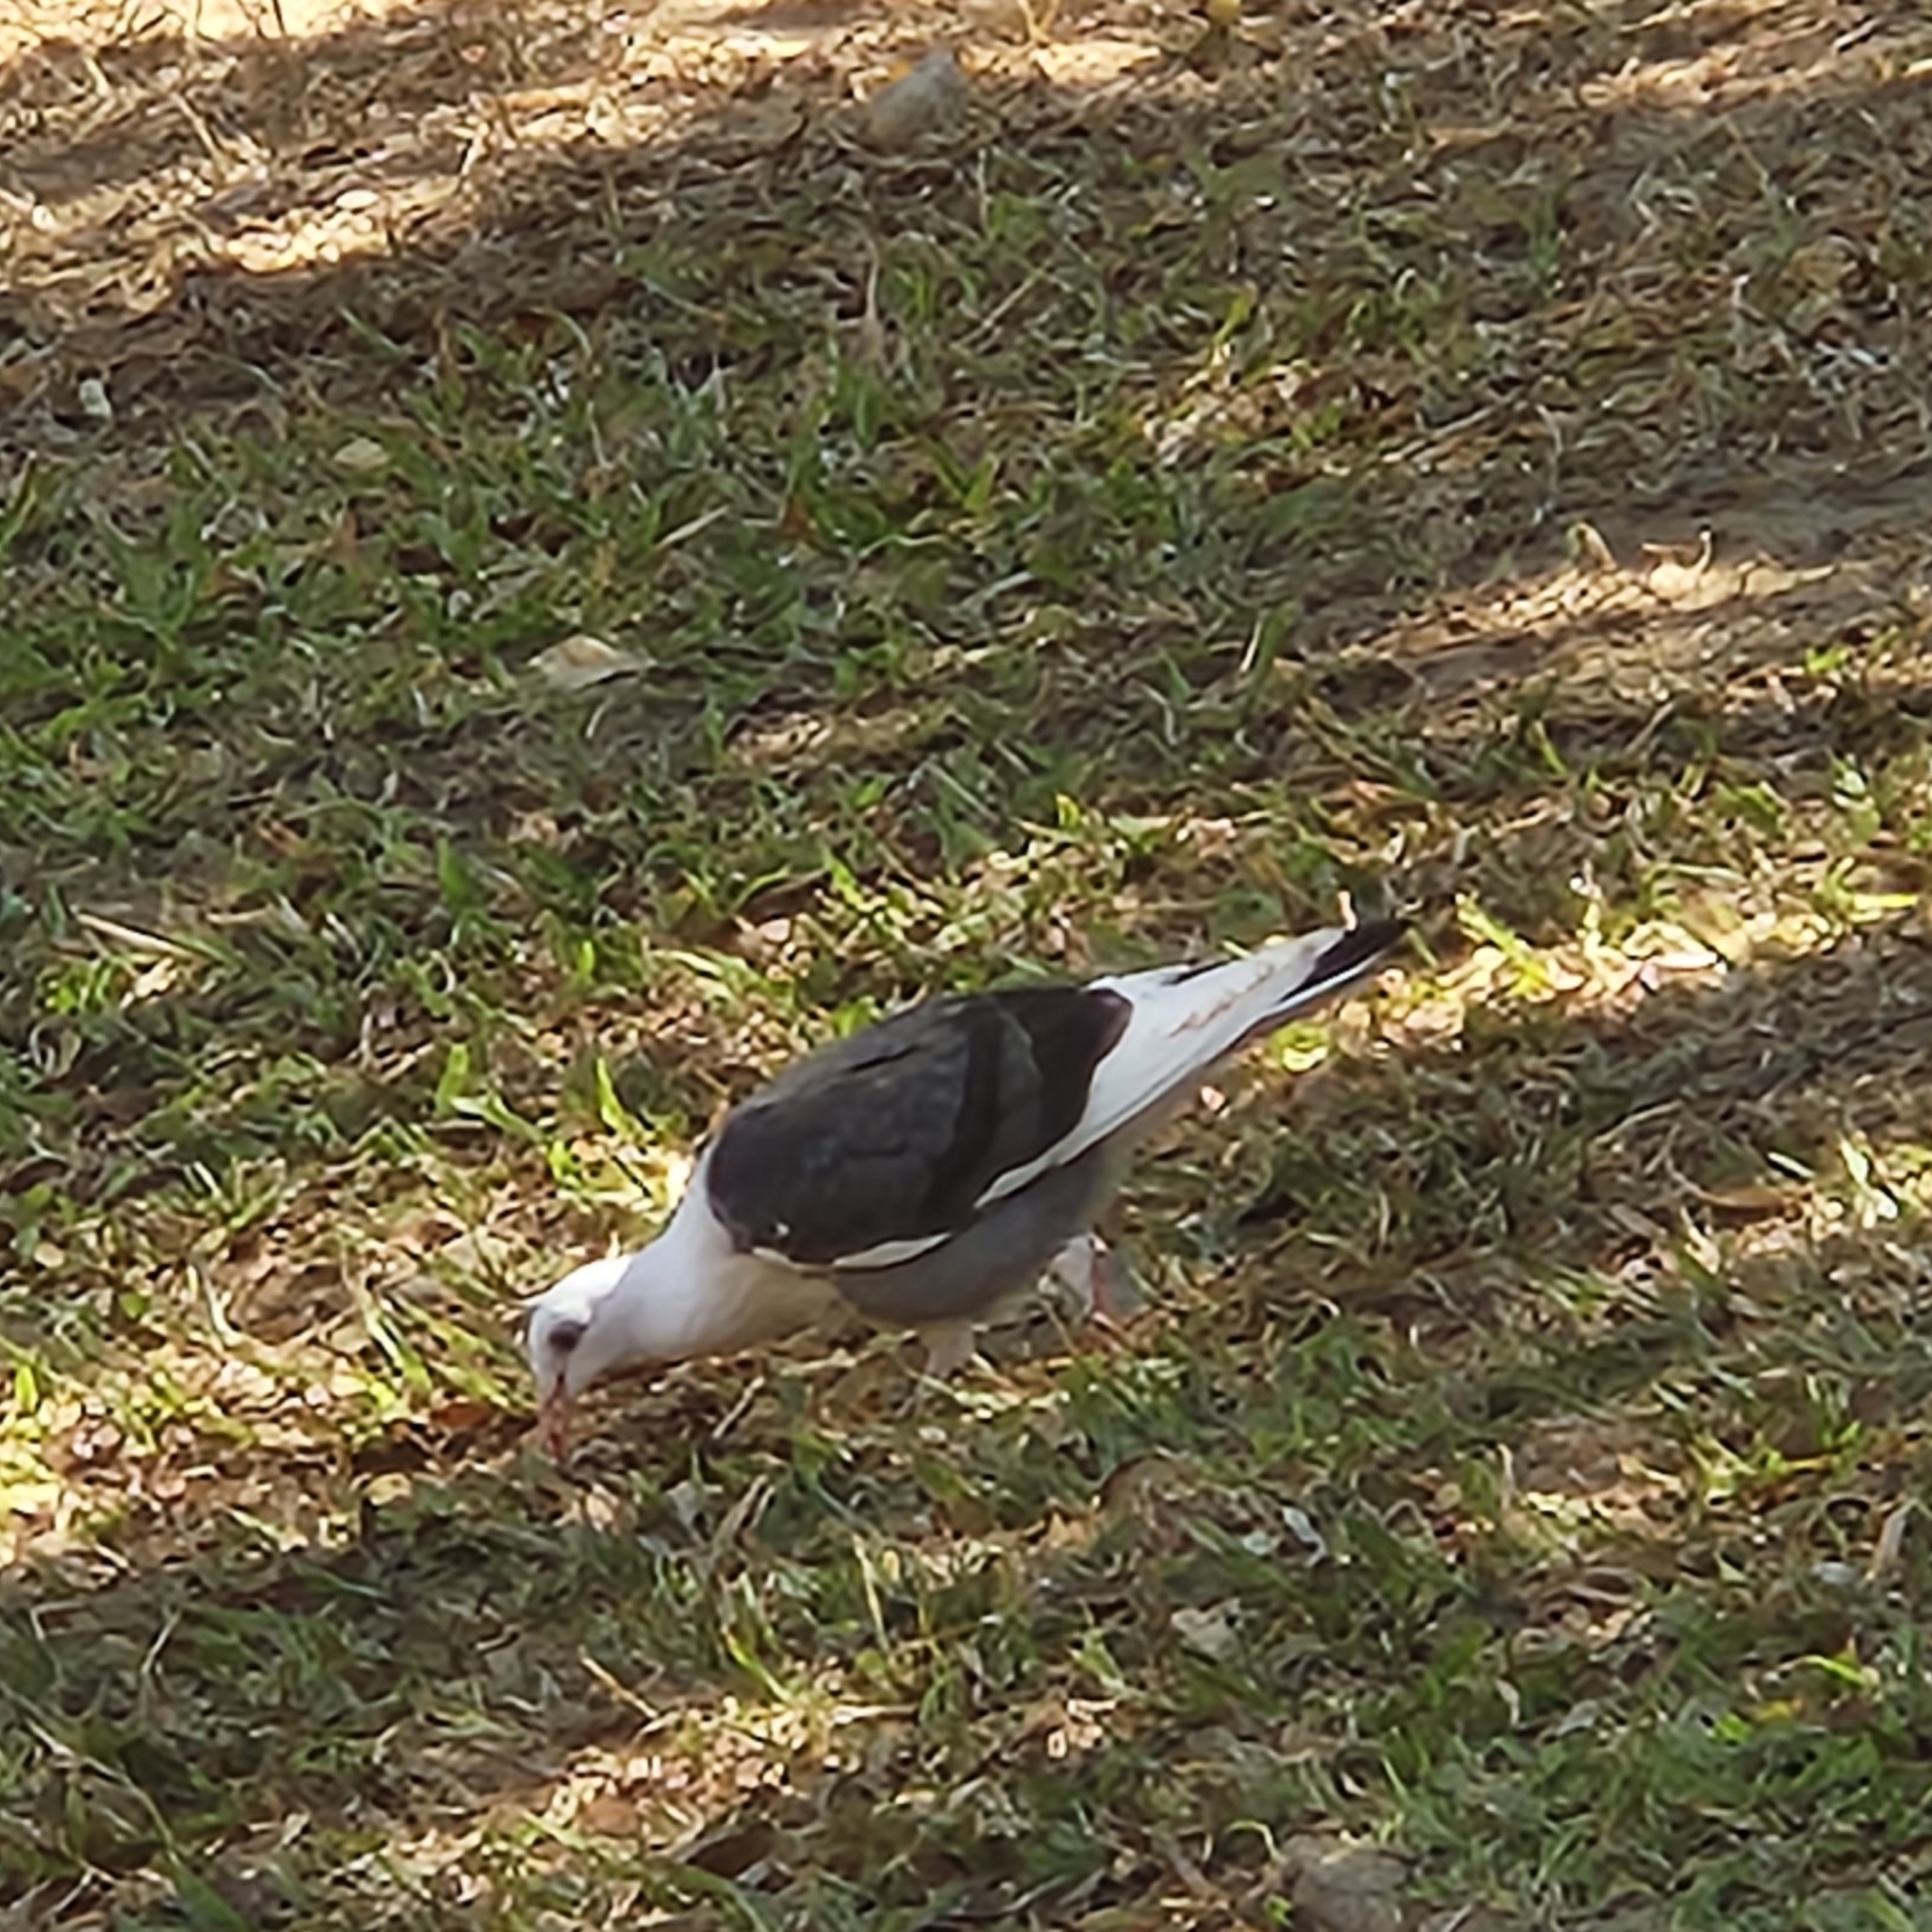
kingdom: Animalia
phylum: Chordata
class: Aves
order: Columbiformes
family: Columbidae
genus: Columba
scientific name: Columba livia
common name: Rock pigeon
